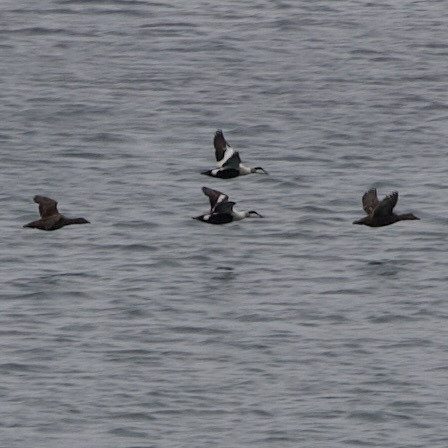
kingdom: Animalia
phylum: Chordata
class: Aves
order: Anseriformes
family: Anatidae
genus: Somateria
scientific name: Somateria mollissima
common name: Common eider
